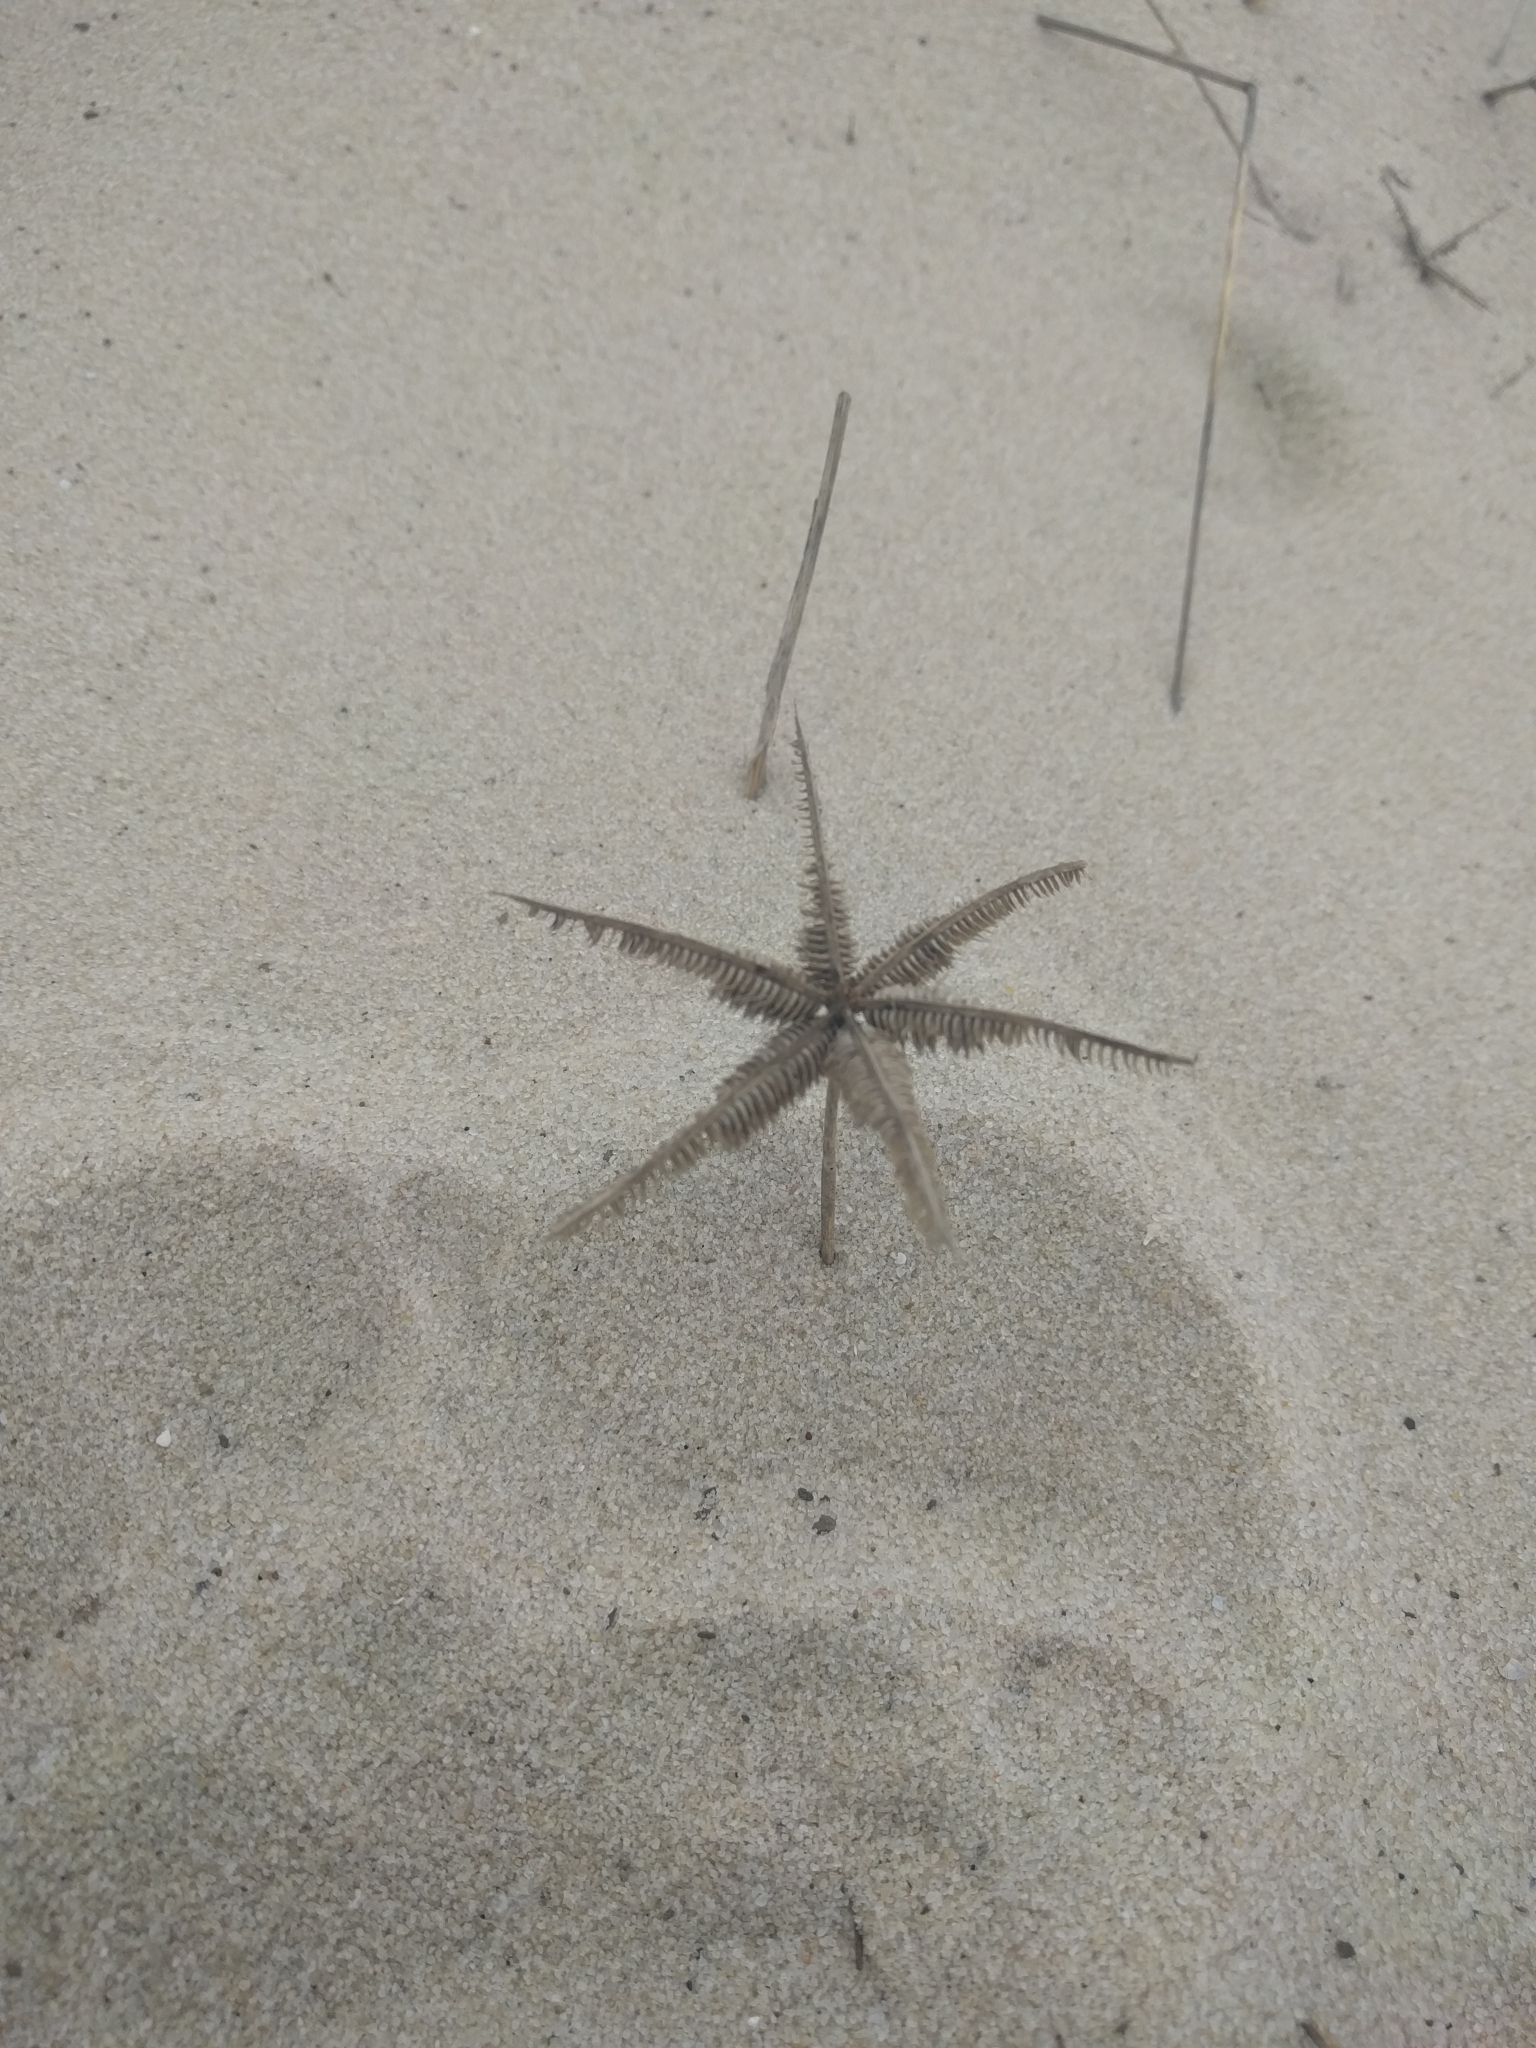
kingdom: Plantae
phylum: Tracheophyta
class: Liliopsida
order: Poales
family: Poaceae
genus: Dactyloctenium
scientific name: Dactyloctenium aegyptium
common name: Egyptian grass
